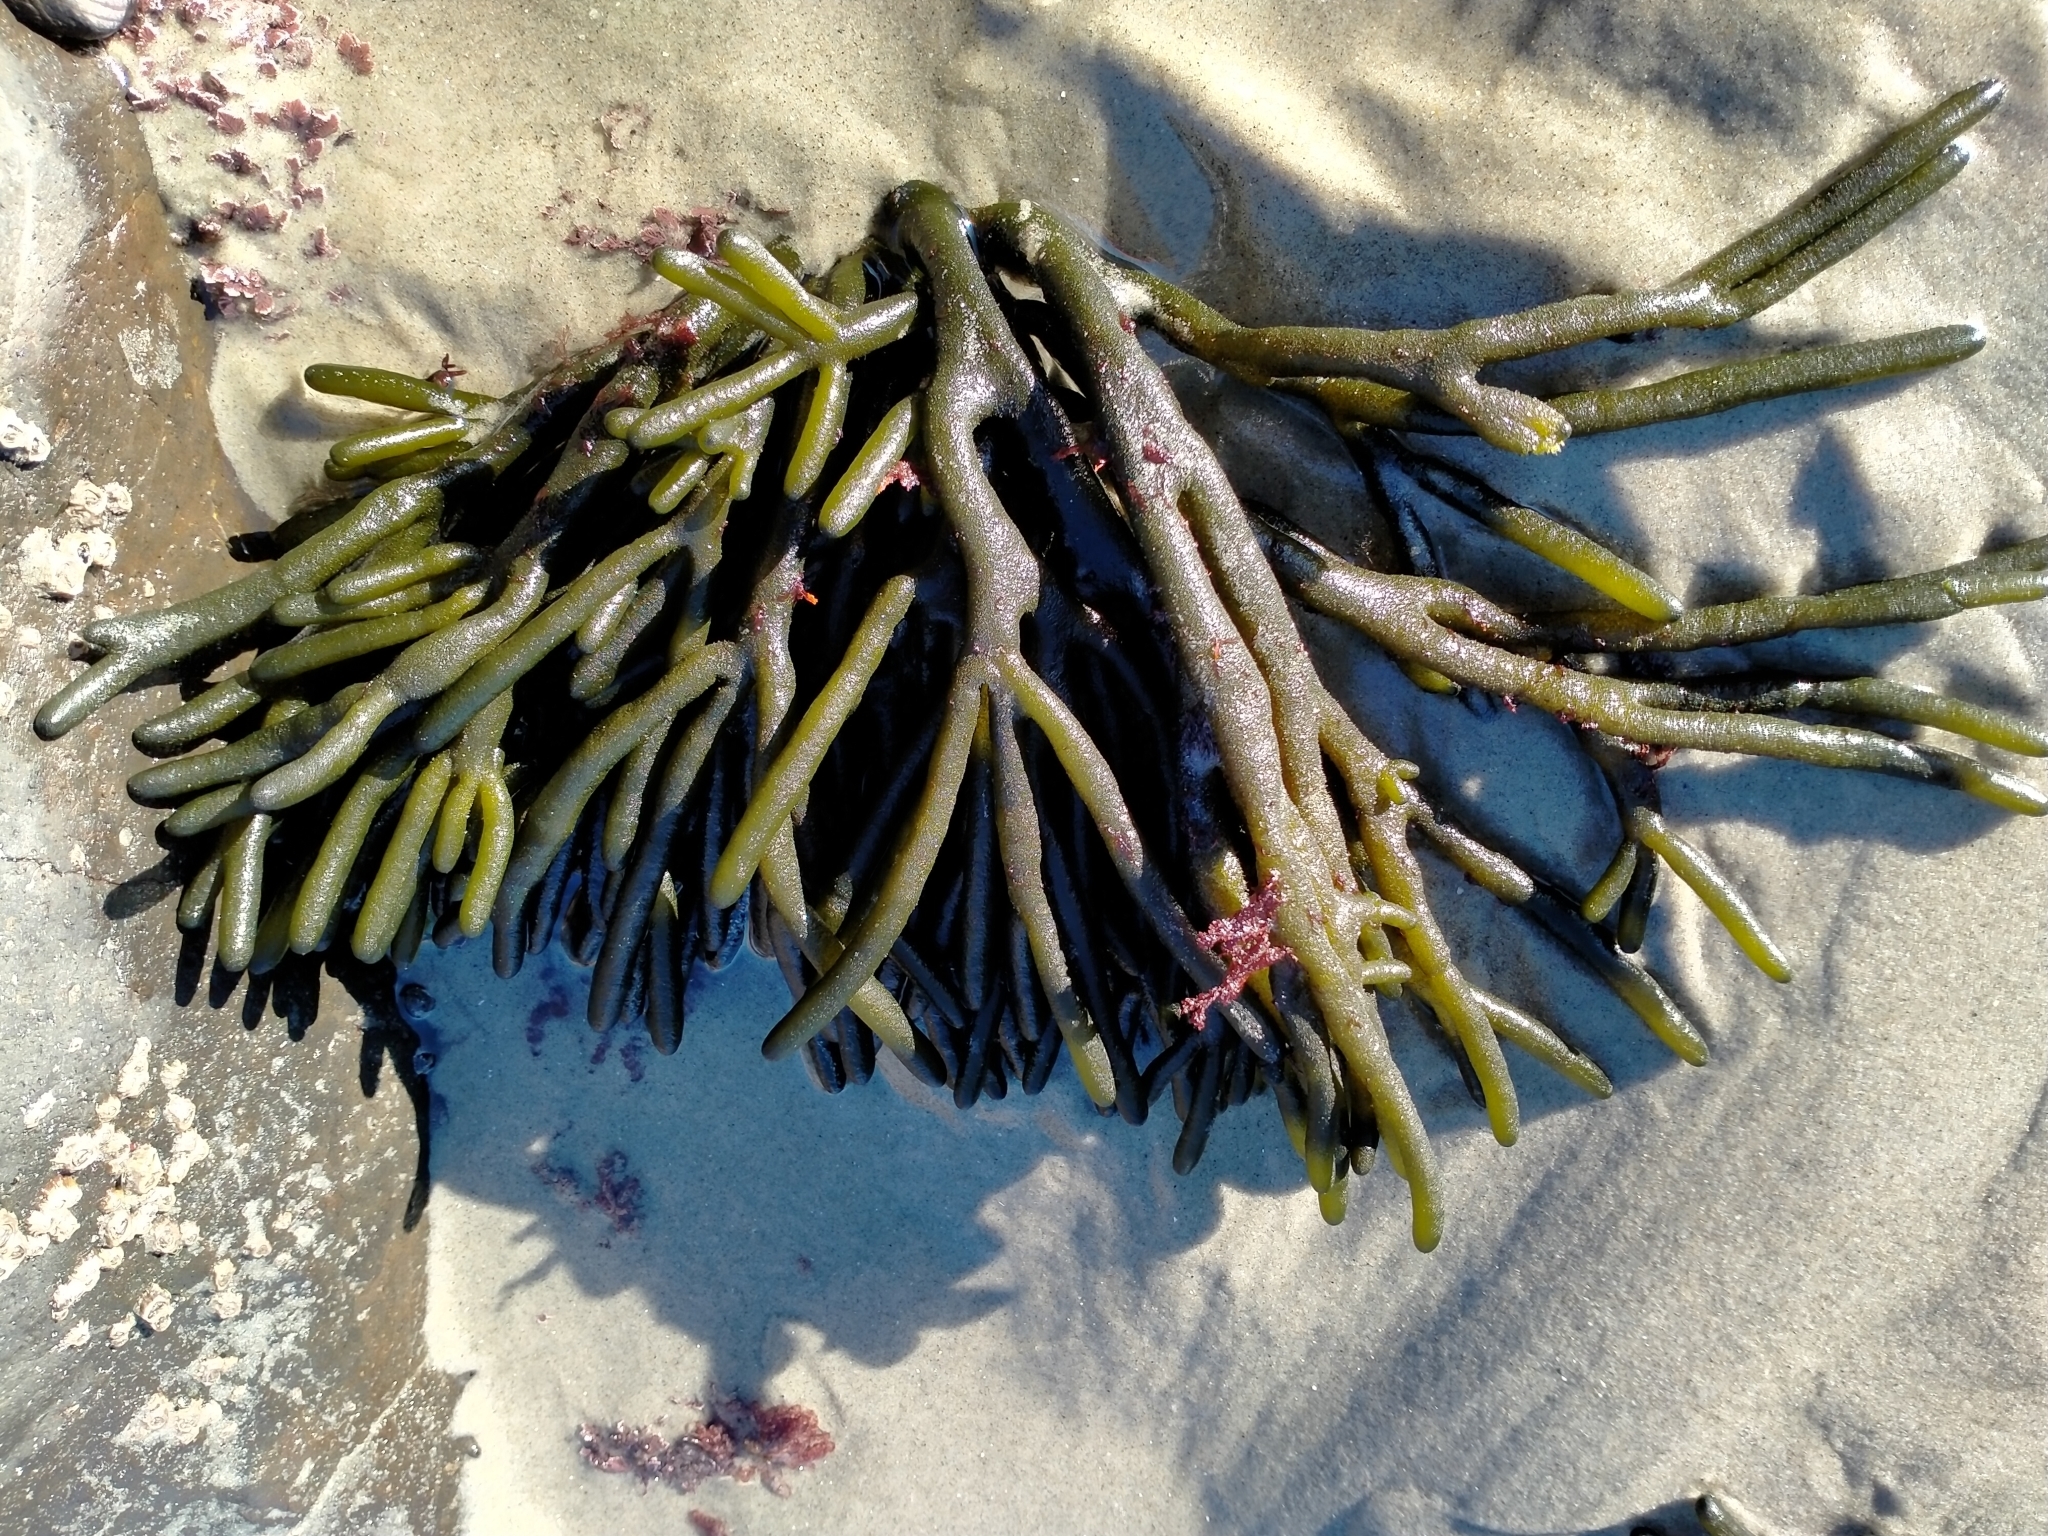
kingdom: Plantae
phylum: Chlorophyta
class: Ulvophyceae
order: Bryopsidales
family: Codiaceae
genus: Codium
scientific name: Codium fragile
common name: Dead man's fingers
